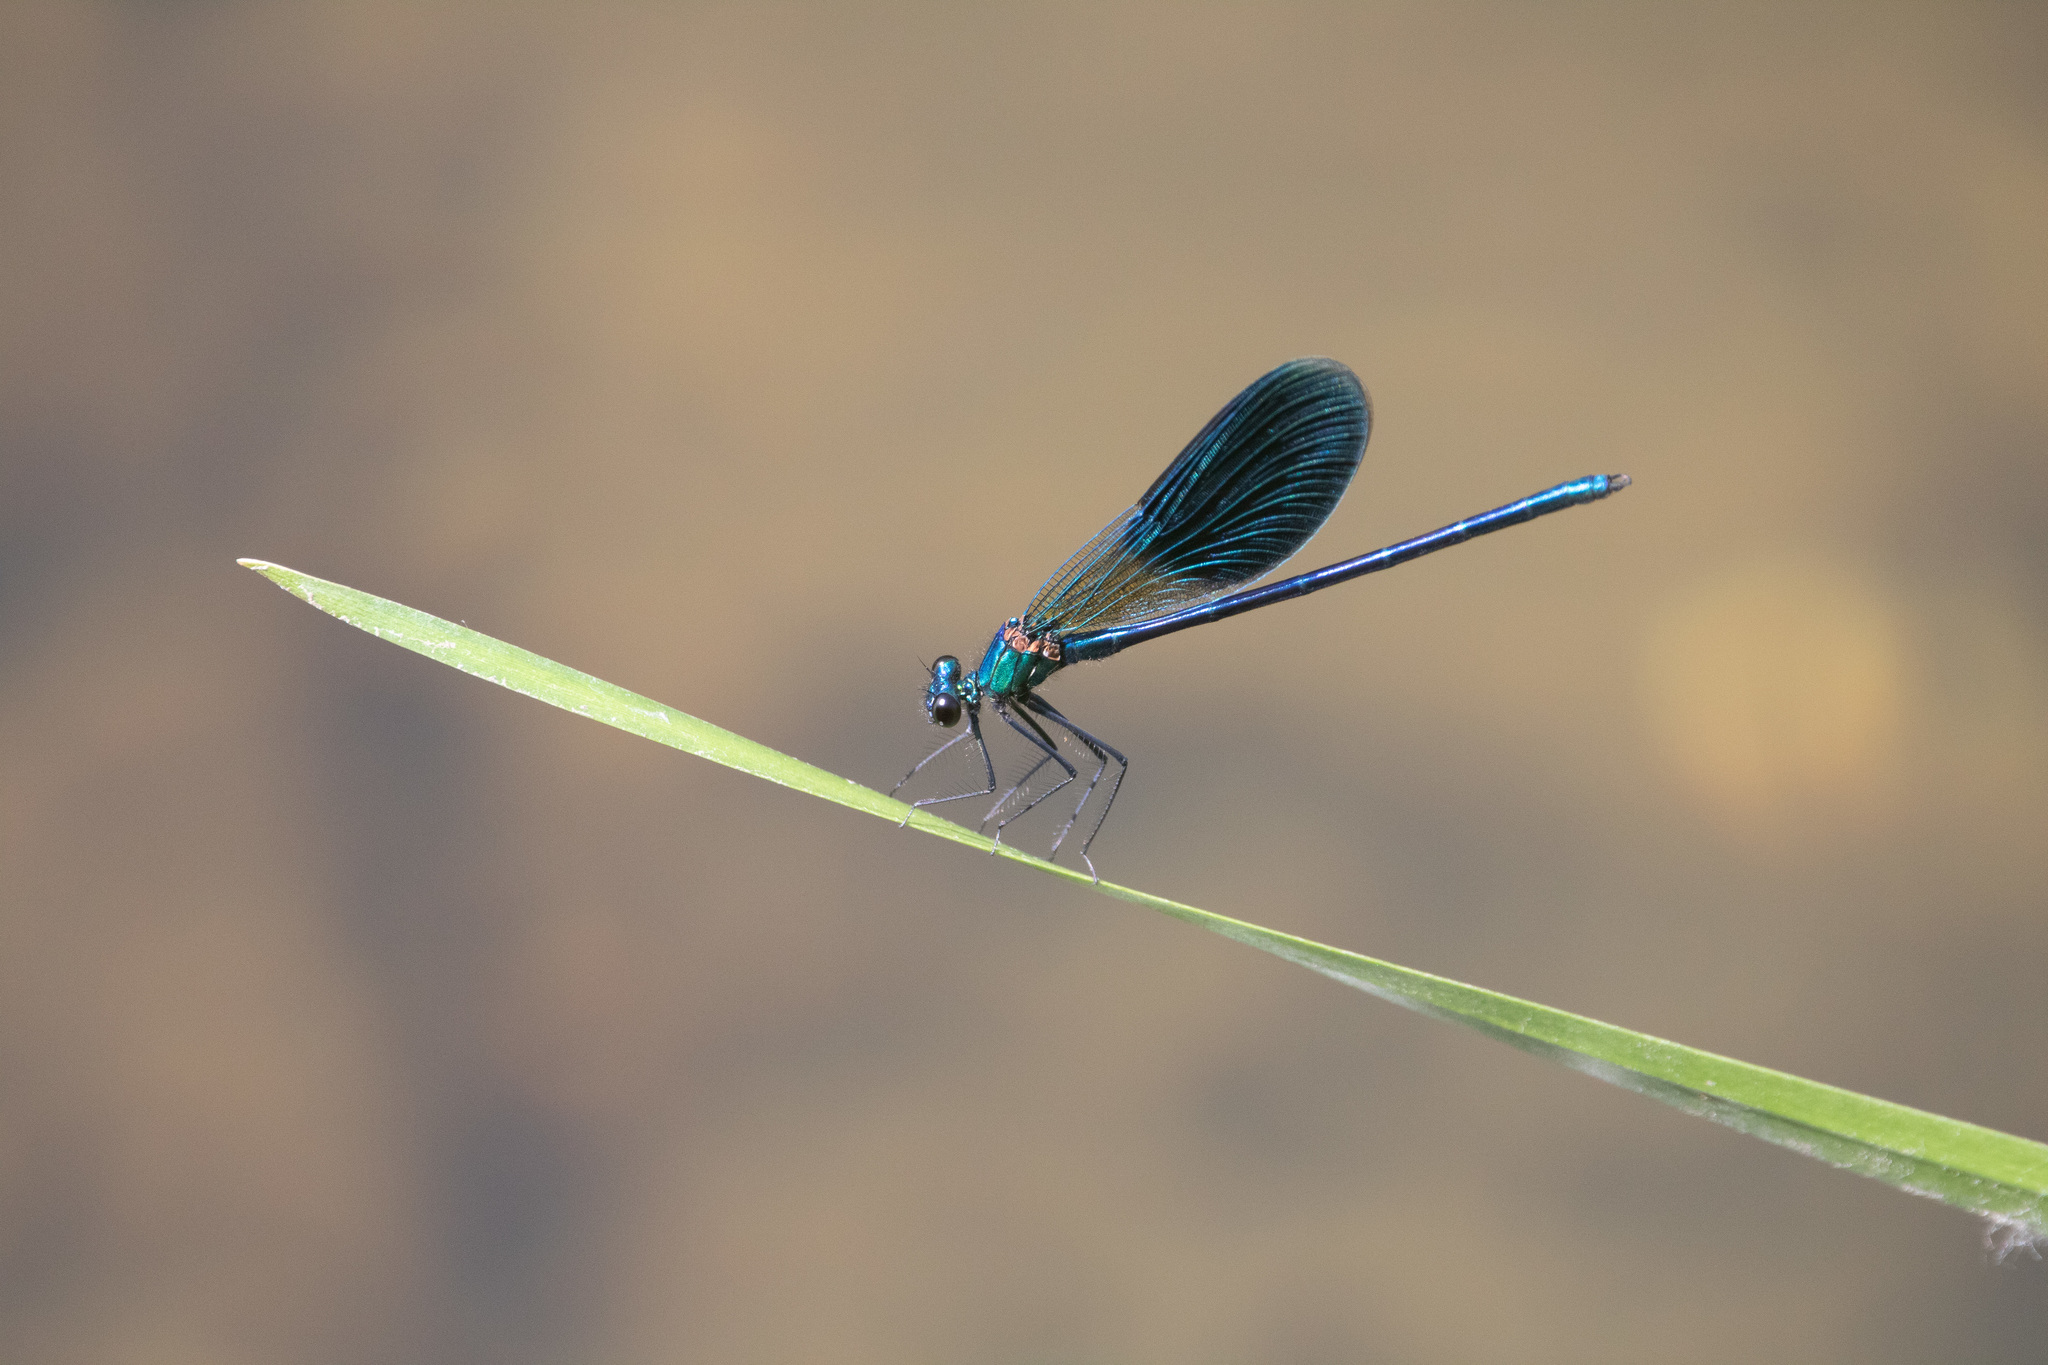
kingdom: Animalia
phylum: Arthropoda
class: Insecta
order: Odonata
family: Calopterygidae
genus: Calopteryx
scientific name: Calopteryx splendens
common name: Banded demoiselle
